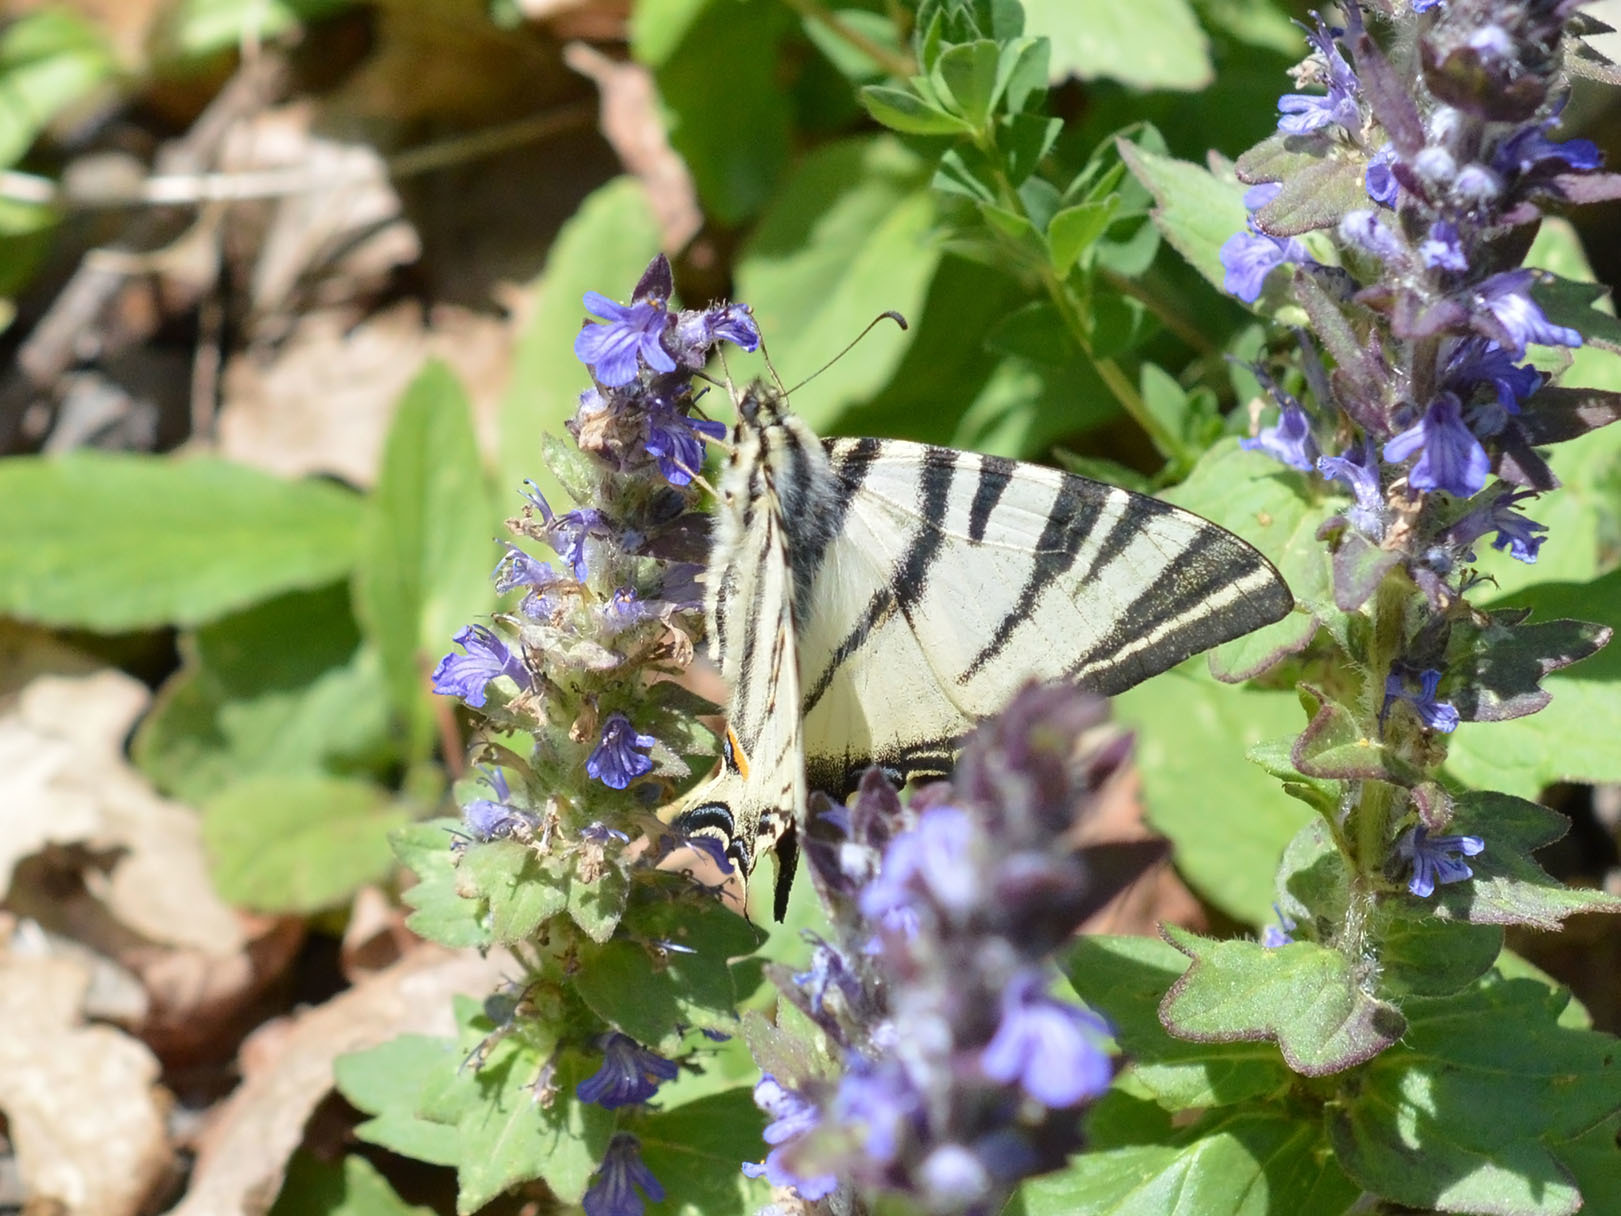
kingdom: Animalia
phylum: Arthropoda
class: Insecta
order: Lepidoptera
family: Papilionidae
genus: Iphiclides
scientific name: Iphiclides podalirius
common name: Scarce swallowtail
